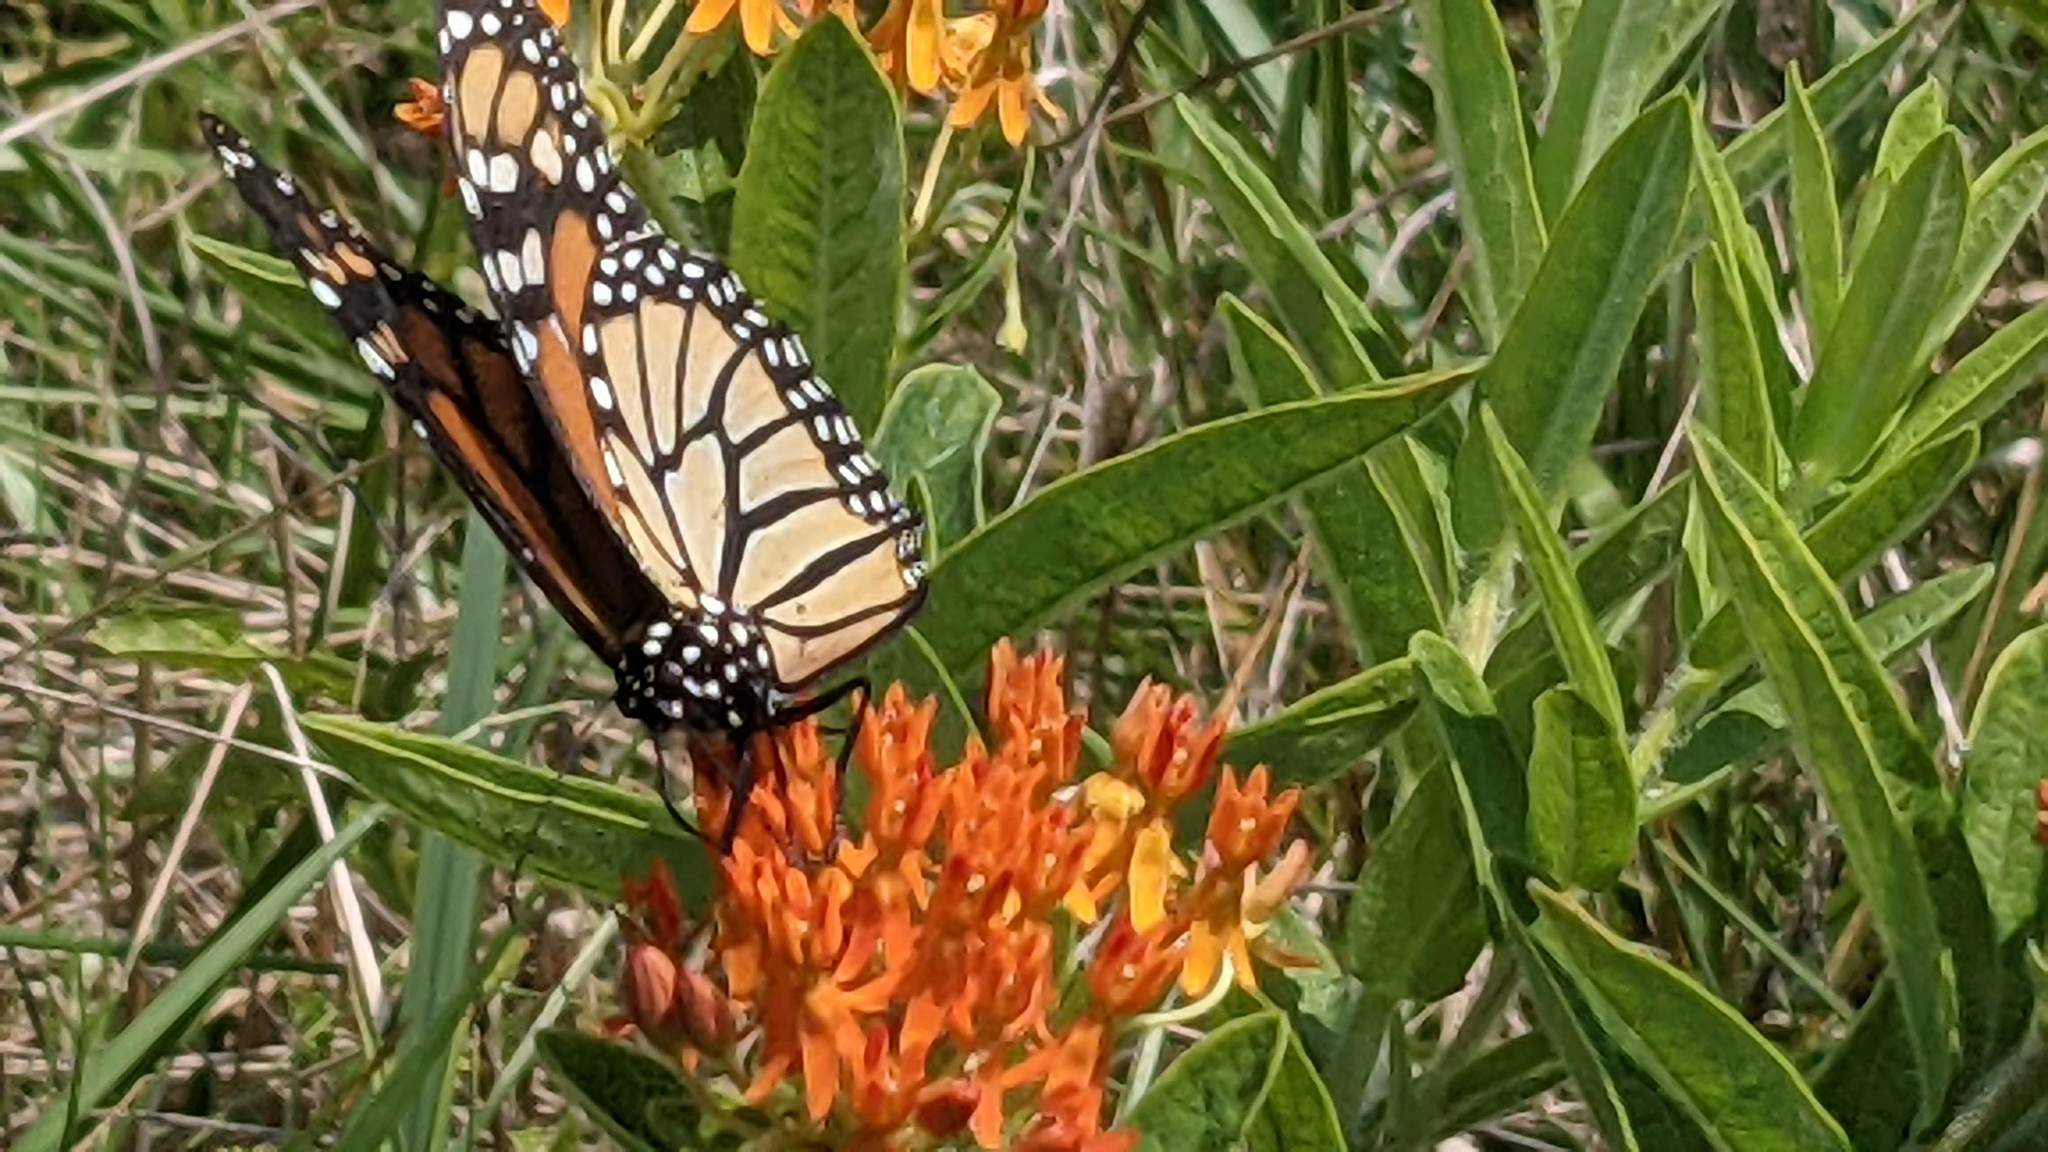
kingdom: Animalia
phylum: Arthropoda
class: Insecta
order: Lepidoptera
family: Nymphalidae
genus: Danaus
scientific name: Danaus plexippus
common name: Monarch
